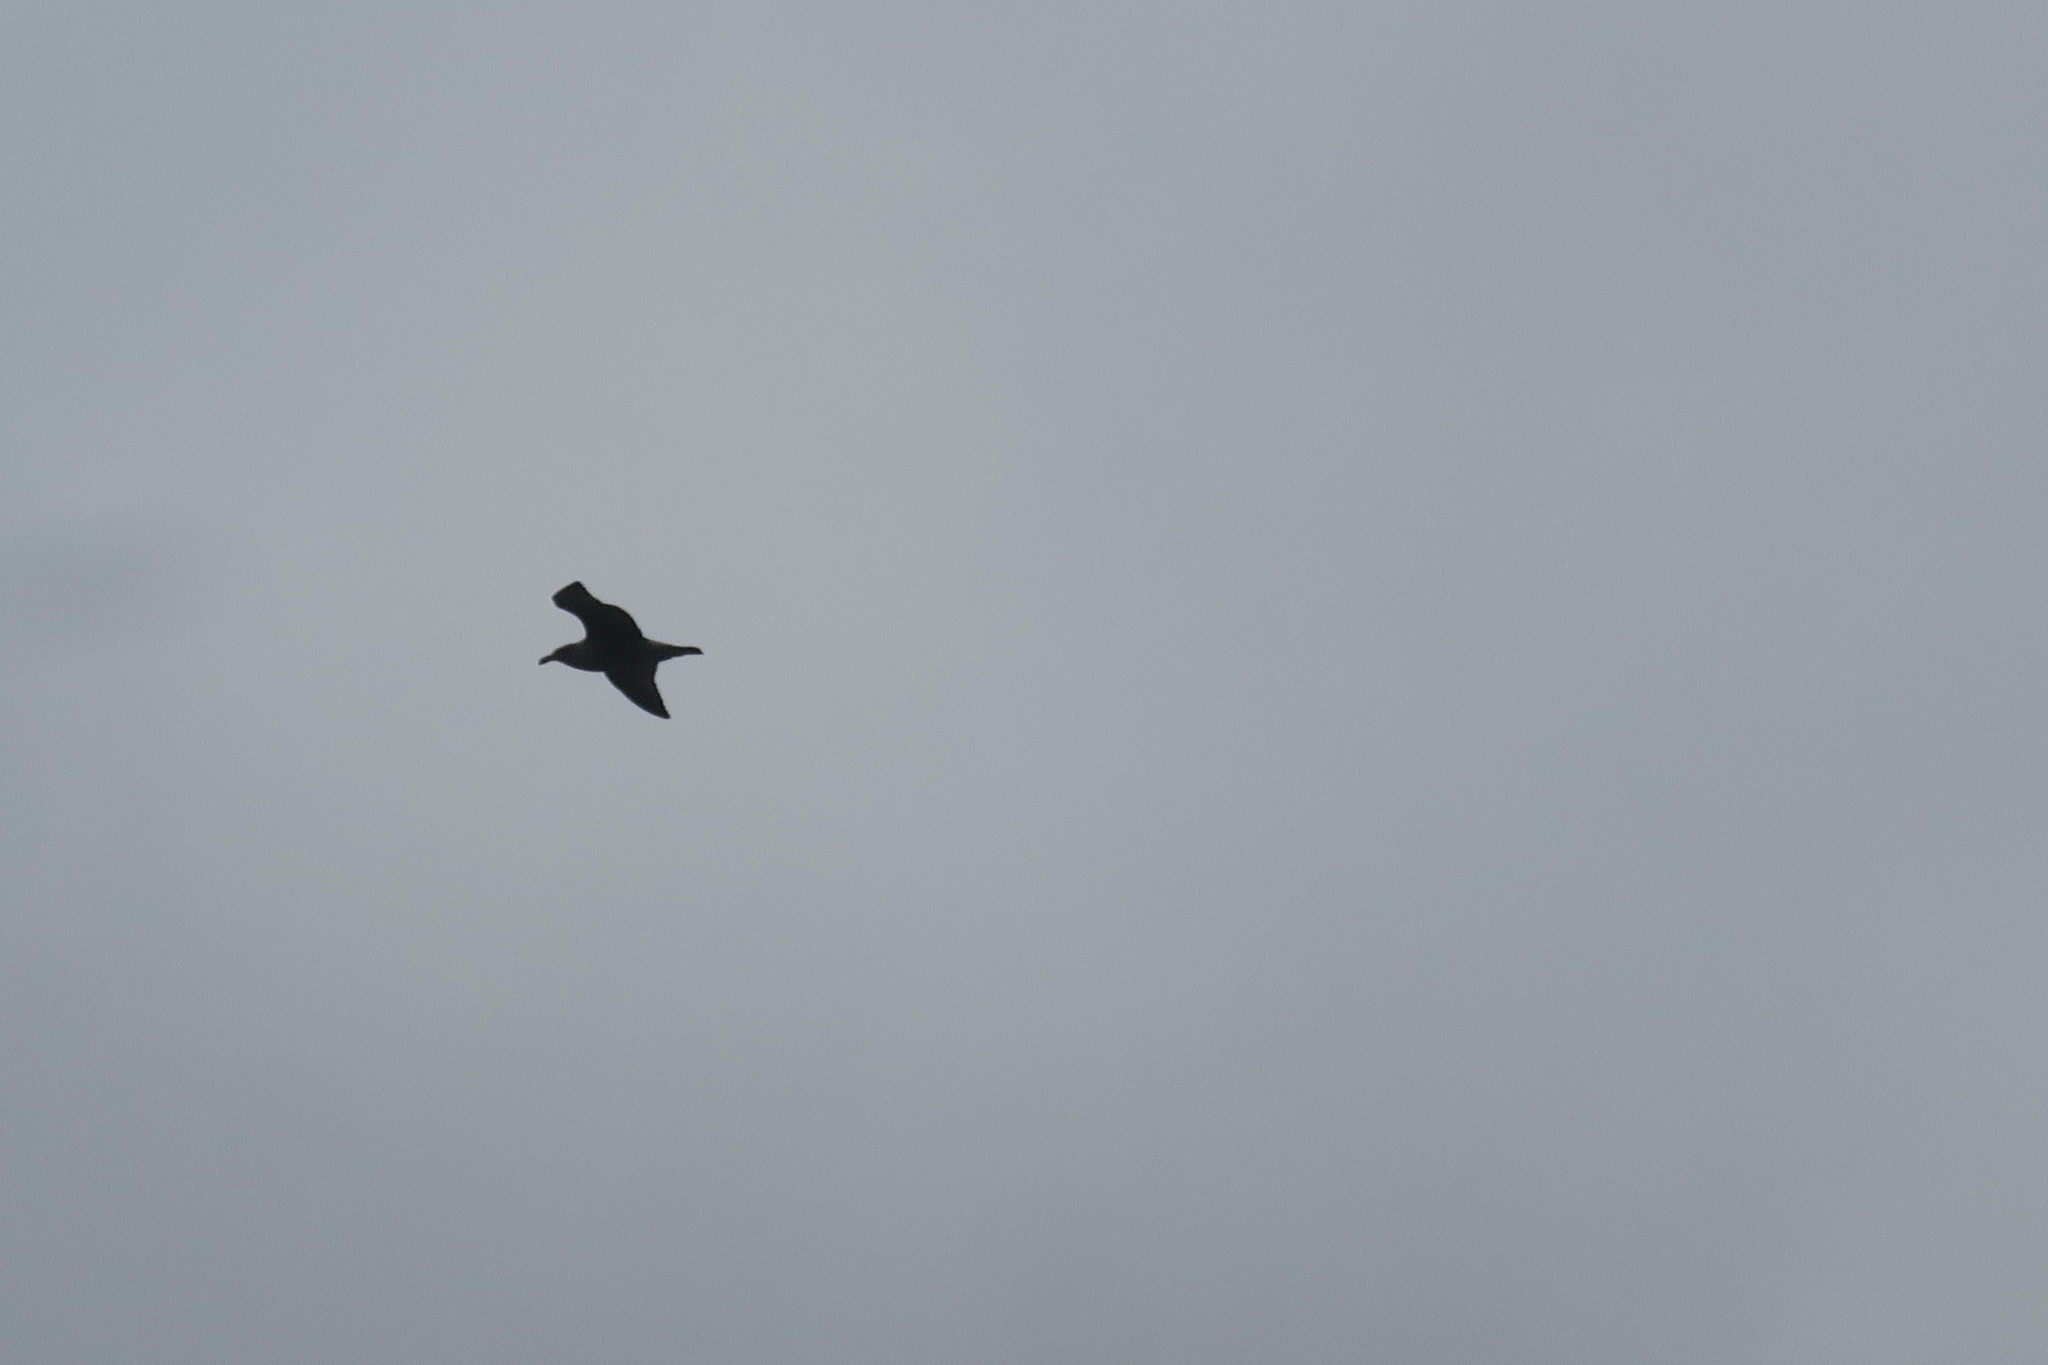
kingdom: Animalia
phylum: Chordata
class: Aves
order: Charadriiformes
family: Laridae
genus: Larus
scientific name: Larus dominicanus
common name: Kelp gull
